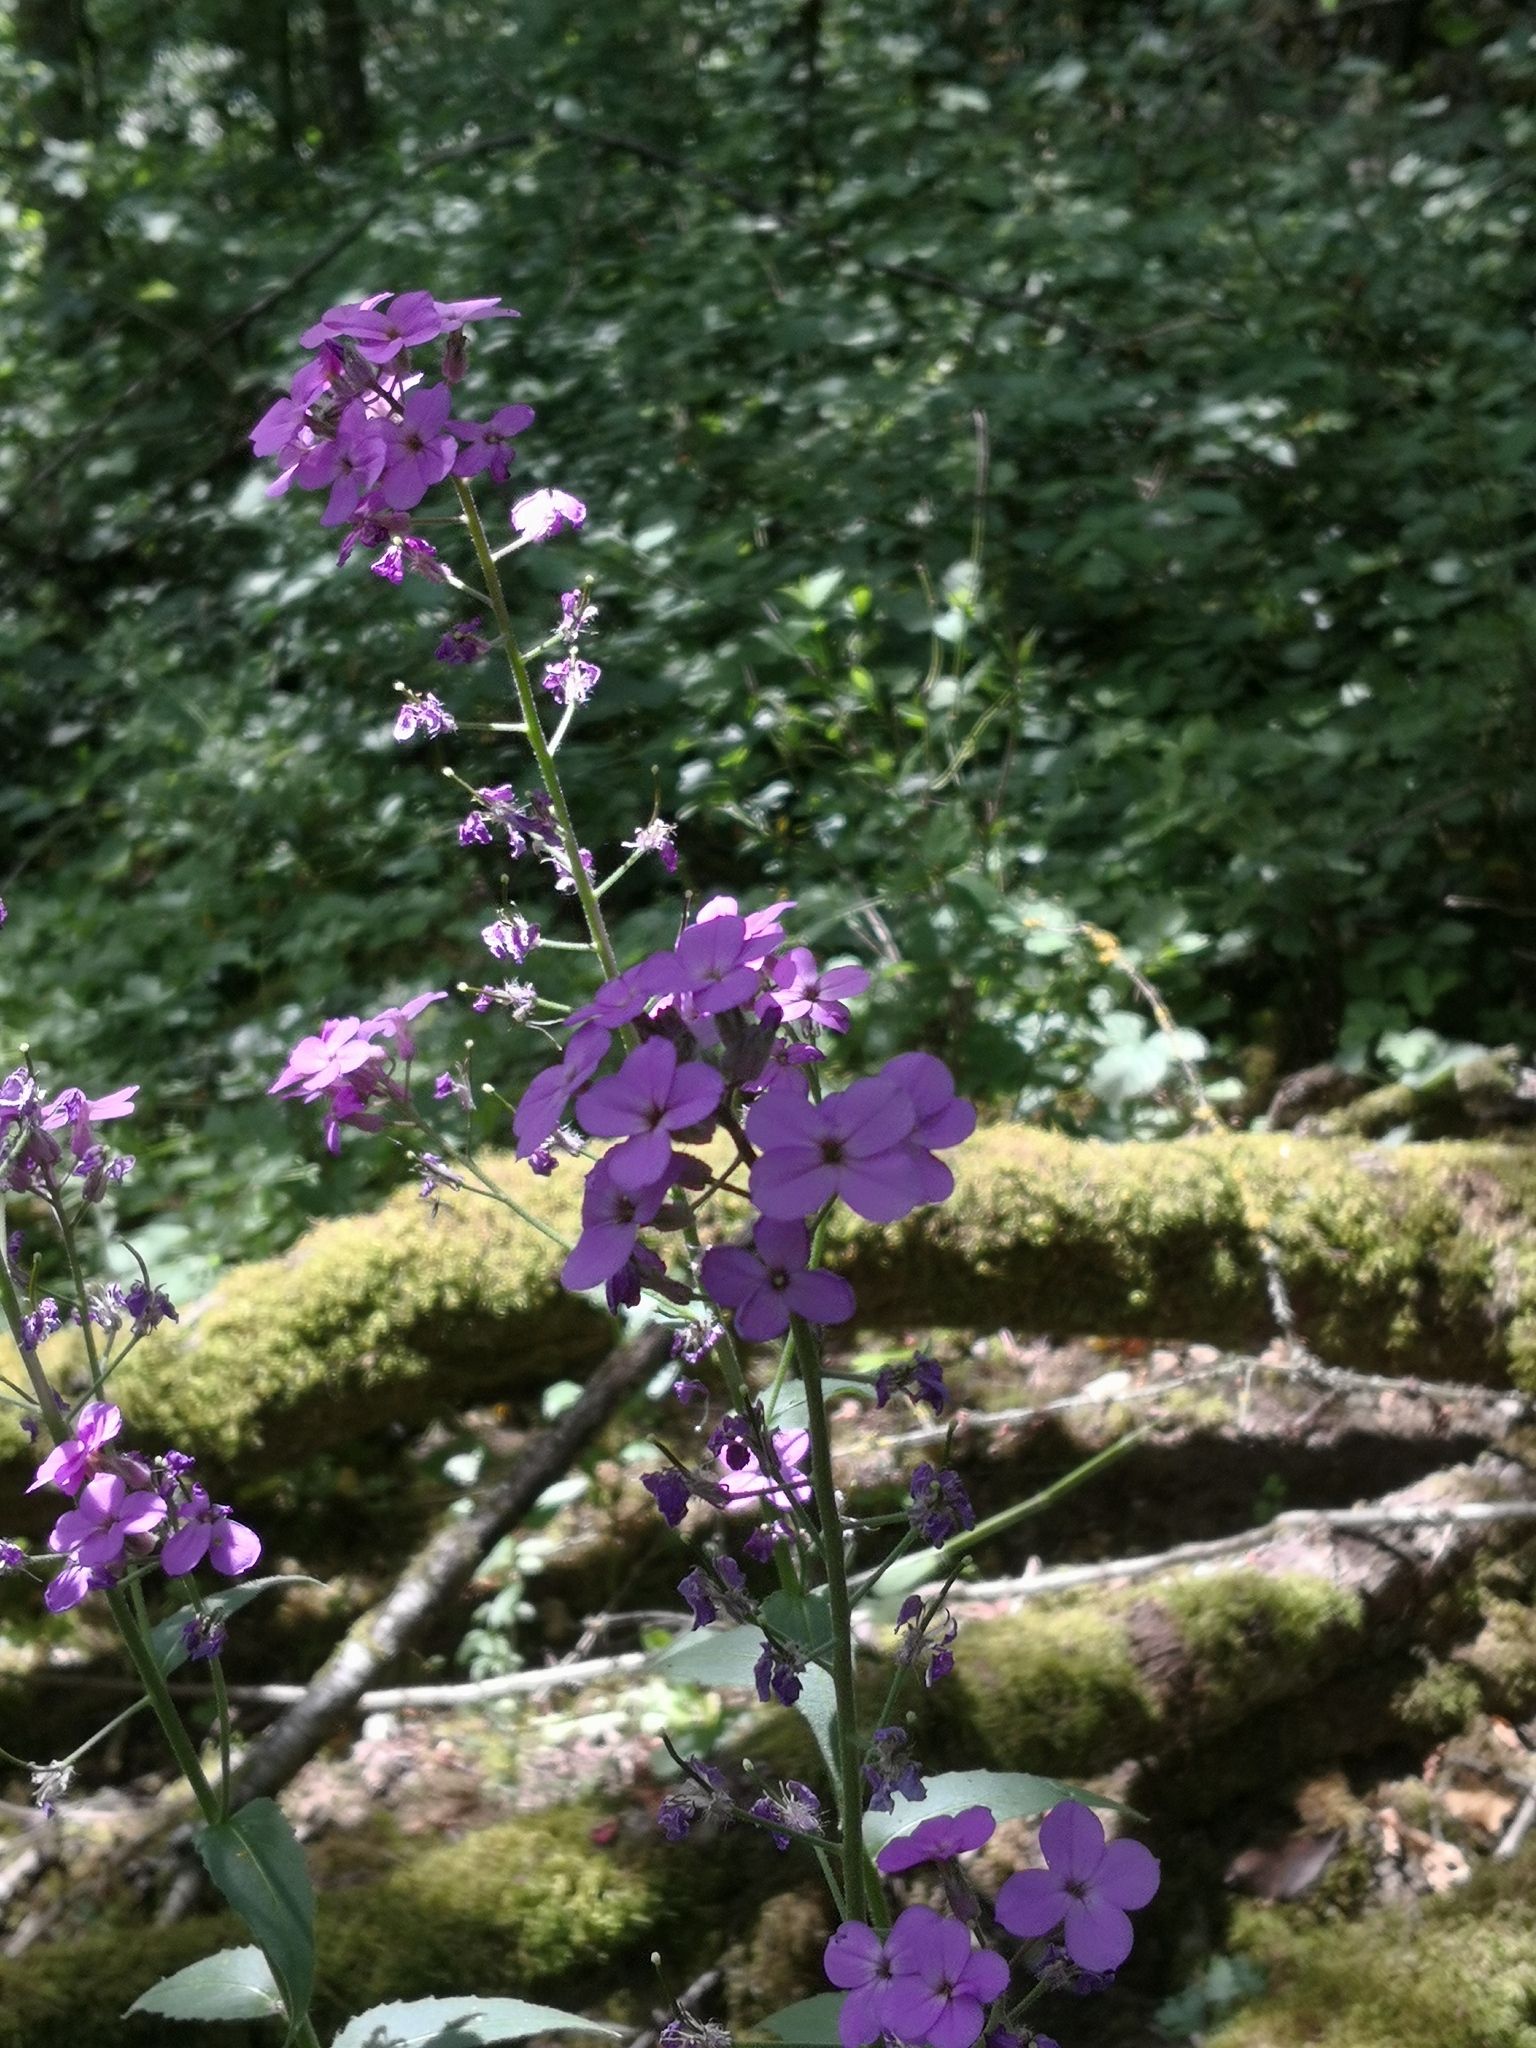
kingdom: Plantae
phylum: Tracheophyta
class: Magnoliopsida
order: Brassicales
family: Brassicaceae
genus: Hesperis
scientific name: Hesperis matronalis
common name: Dame's-violet
